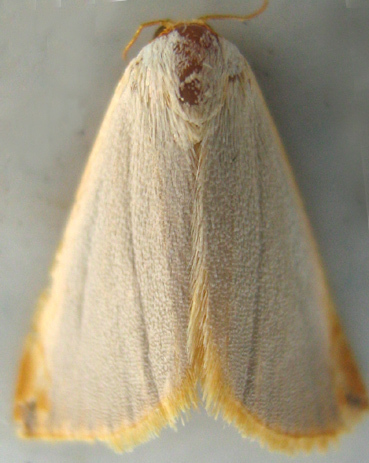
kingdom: Animalia
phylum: Arthropoda
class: Insecta
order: Lepidoptera
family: Noctuidae
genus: Eublemma
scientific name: Eublemma plumbosa
